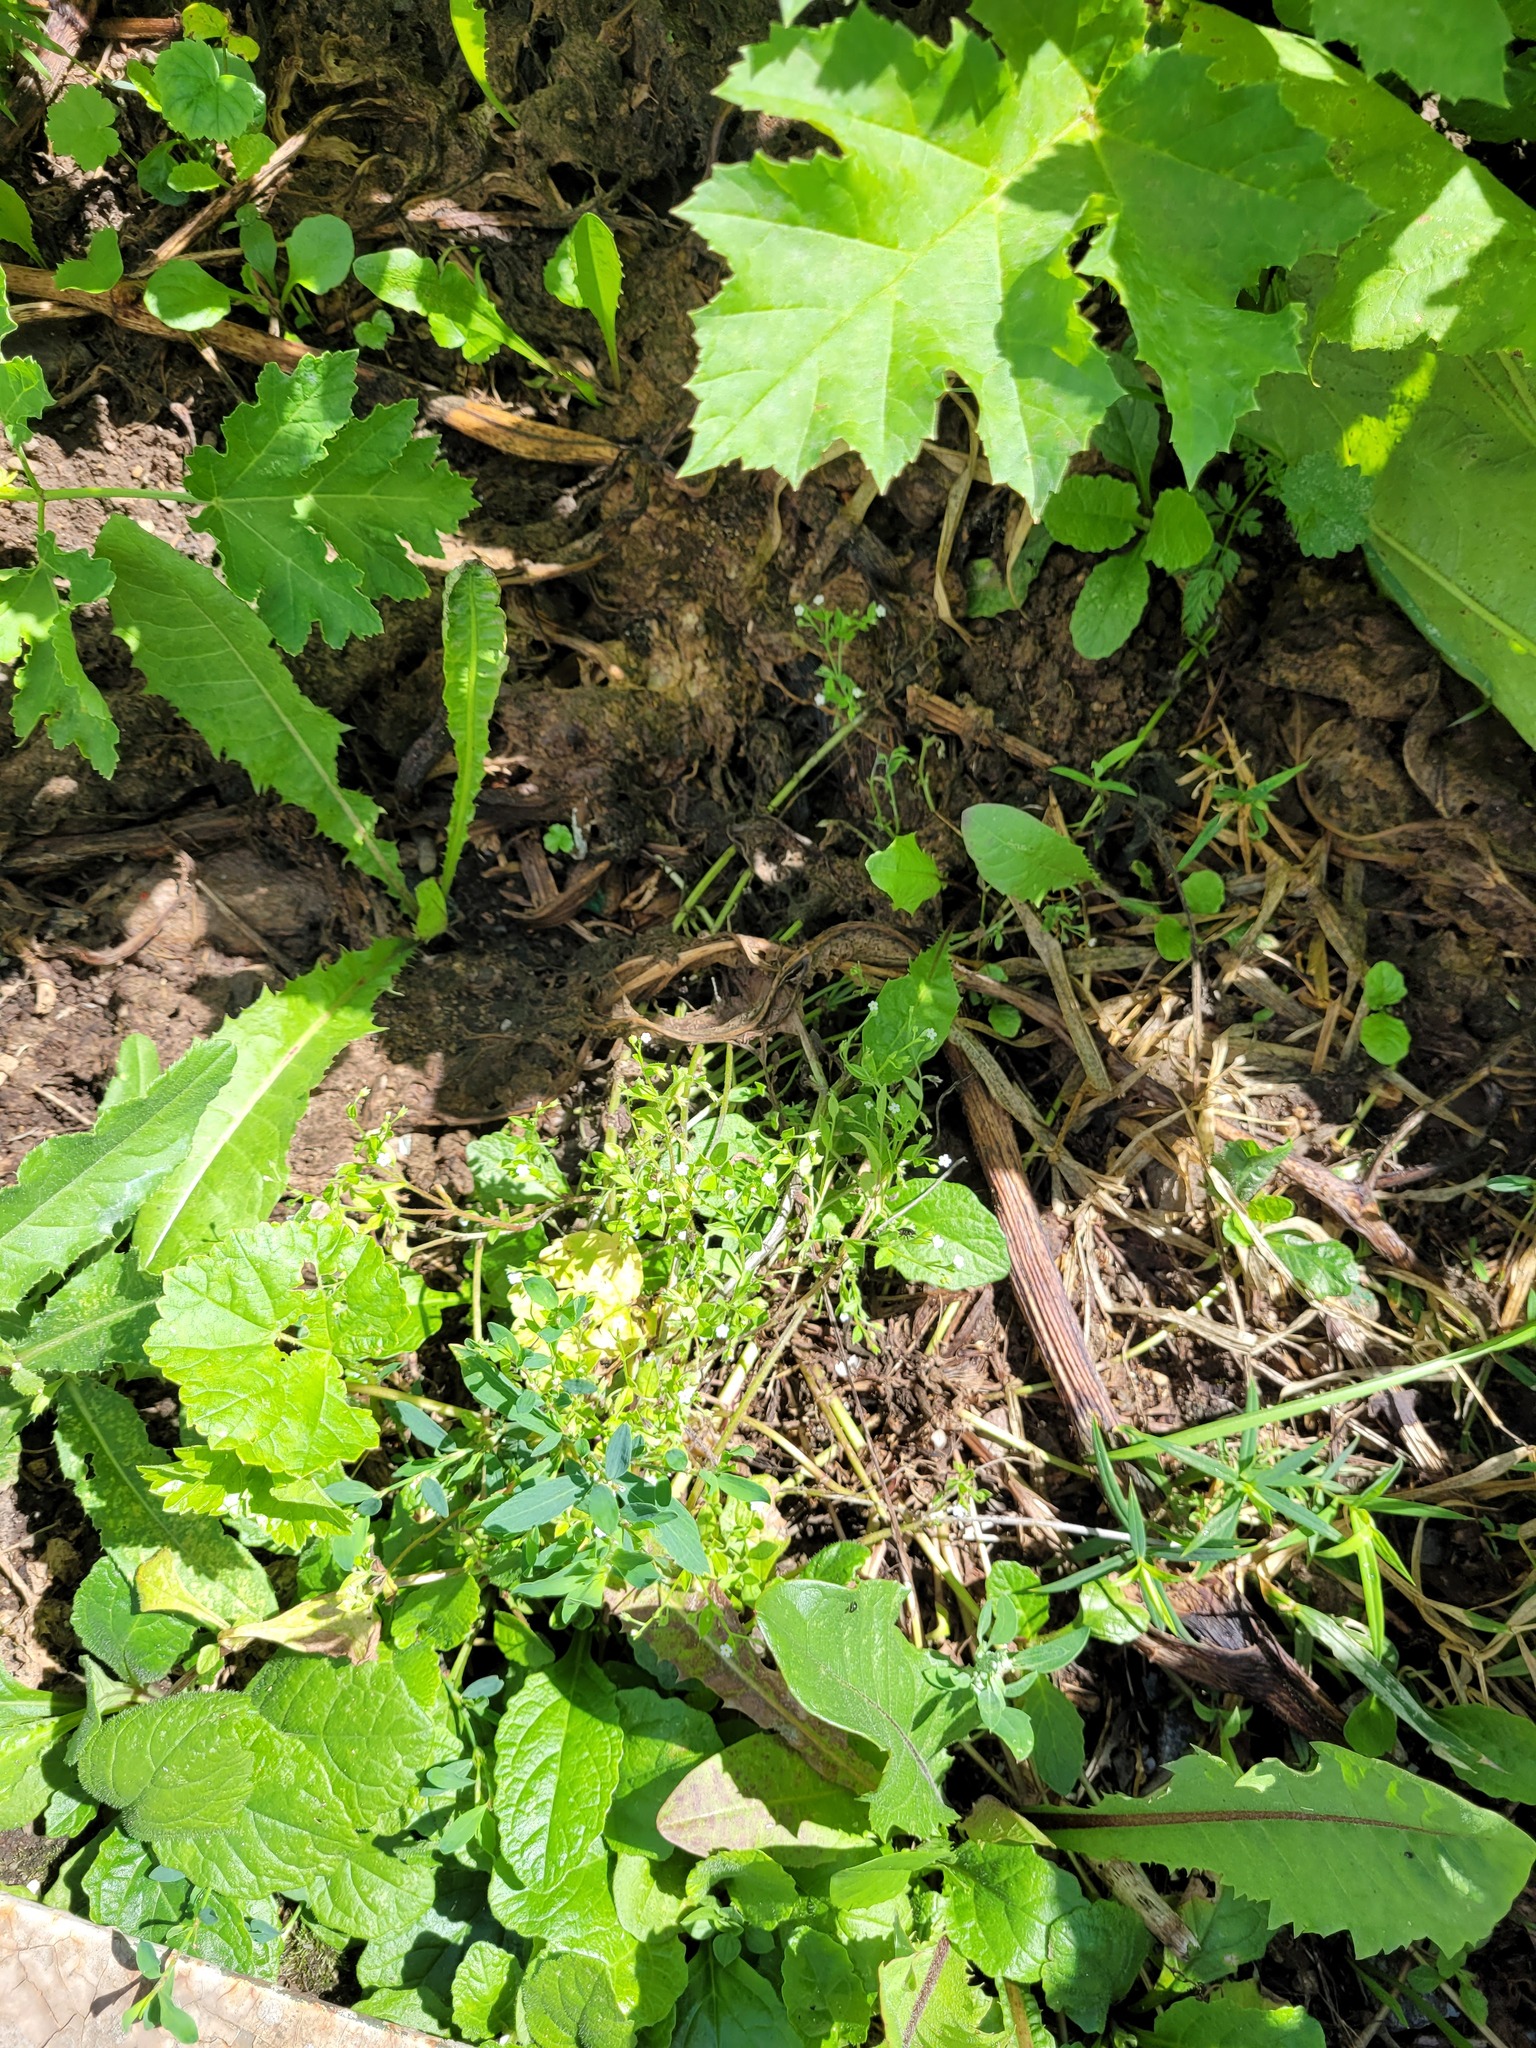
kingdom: Plantae
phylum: Tracheophyta
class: Magnoliopsida
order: Boraginales
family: Boraginaceae
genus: Myosotis
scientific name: Myosotis sparsiflora
